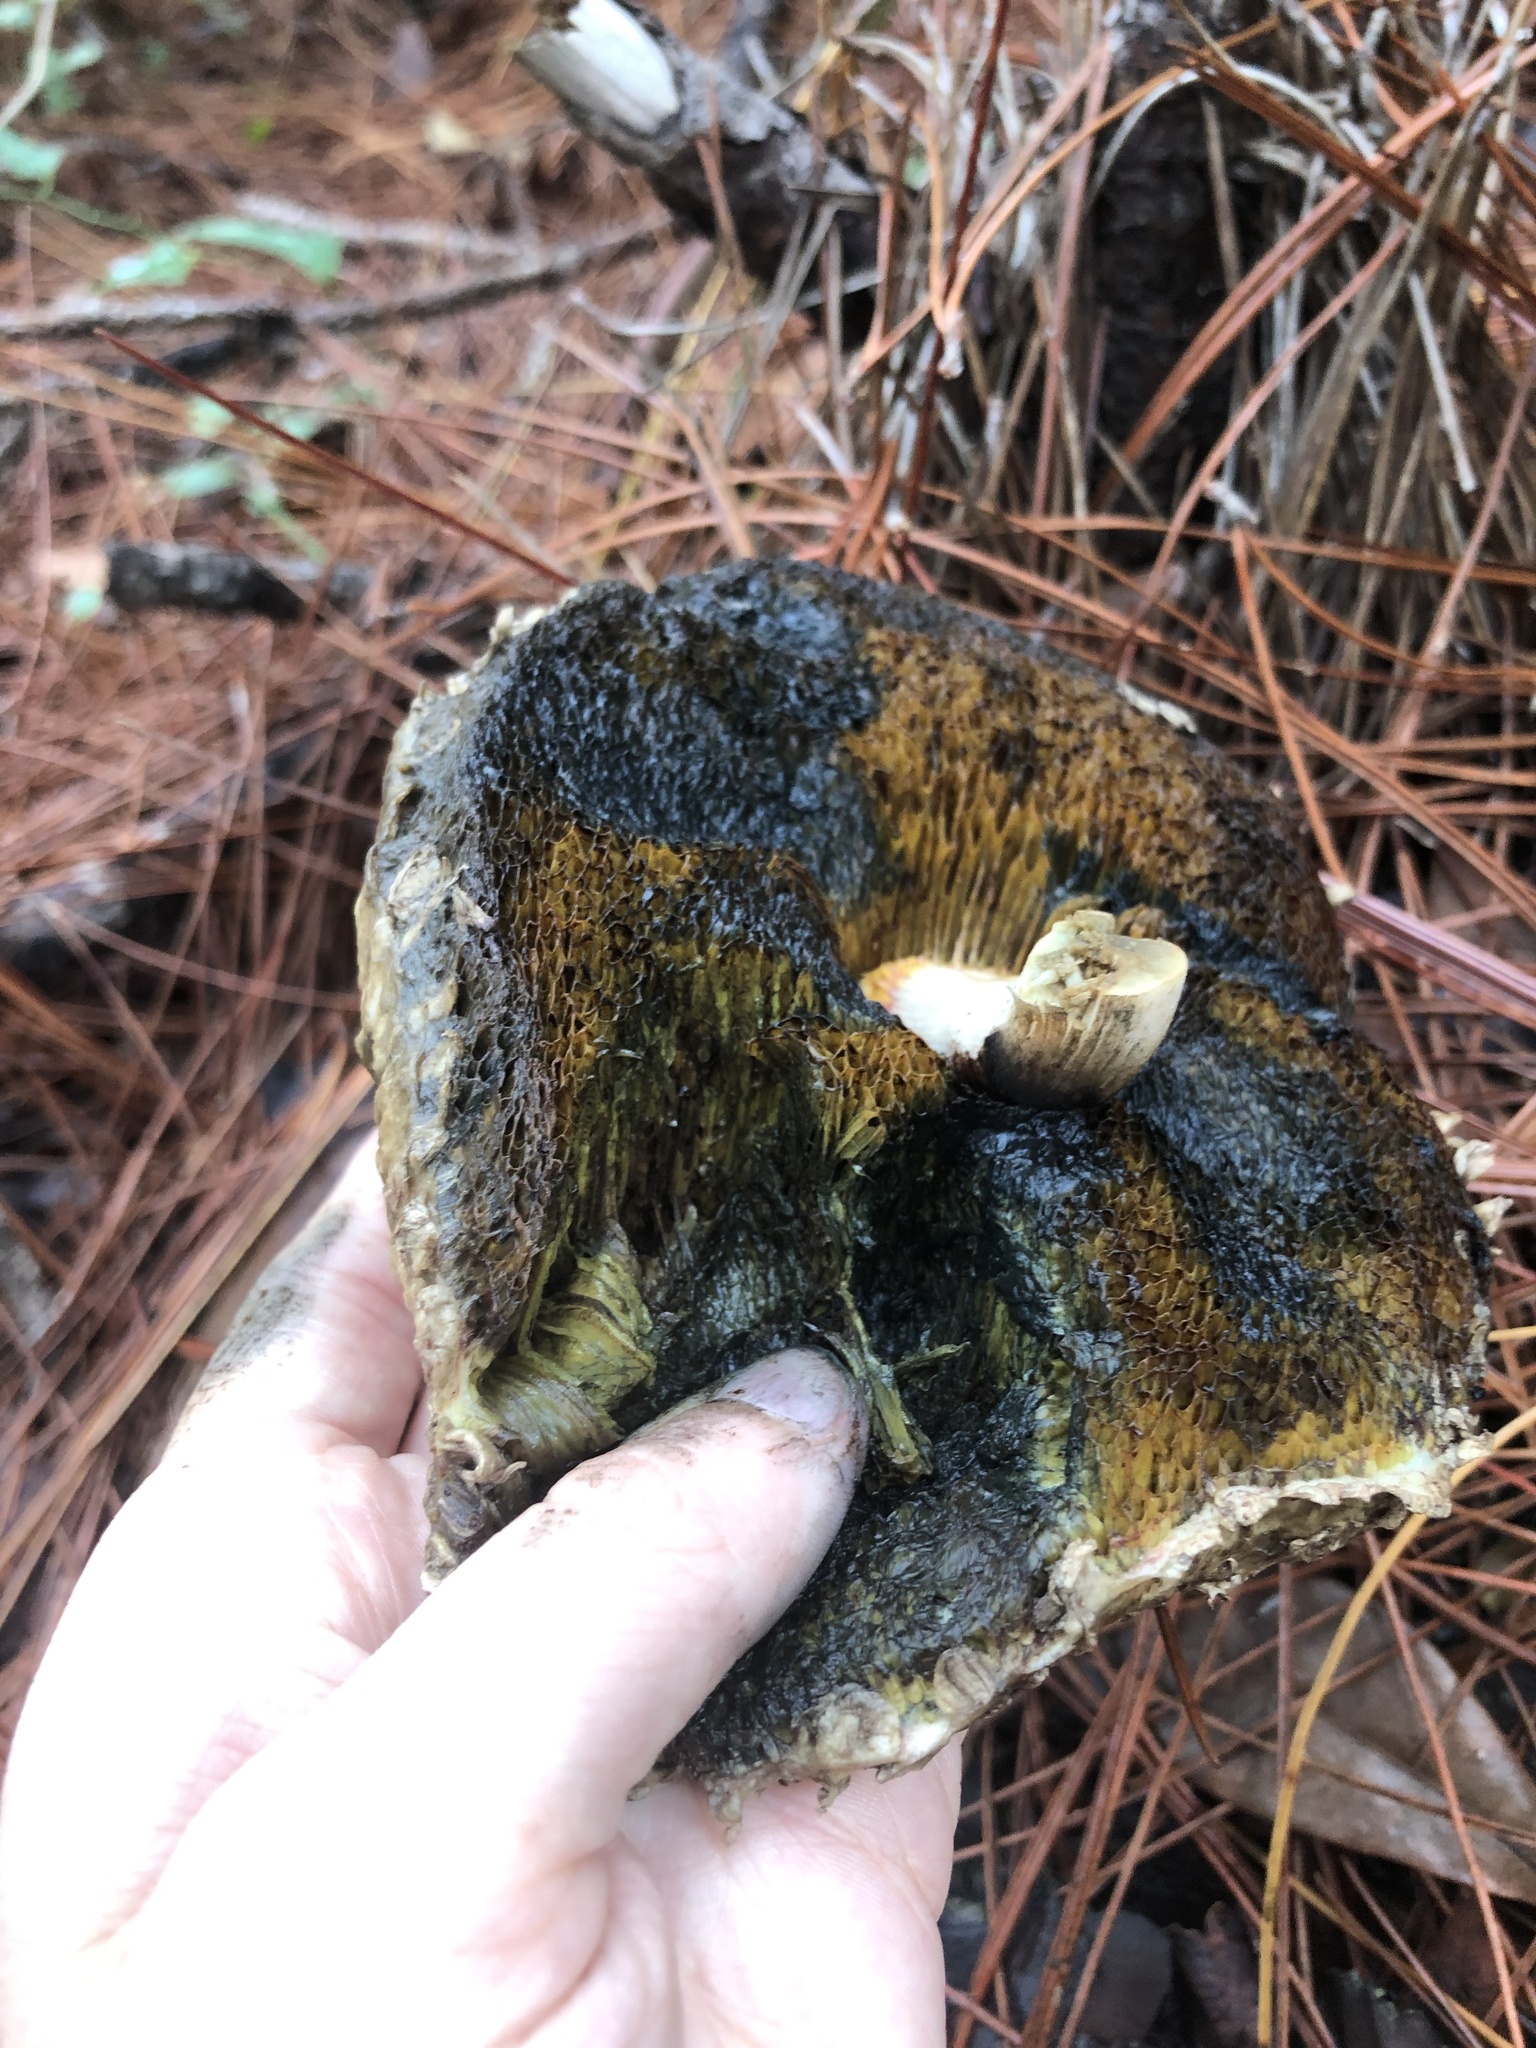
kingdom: Fungi
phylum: Basidiomycota
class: Agaricomycetes
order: Boletales
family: Boletaceae
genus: Boletellus
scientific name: Boletellus ananas
